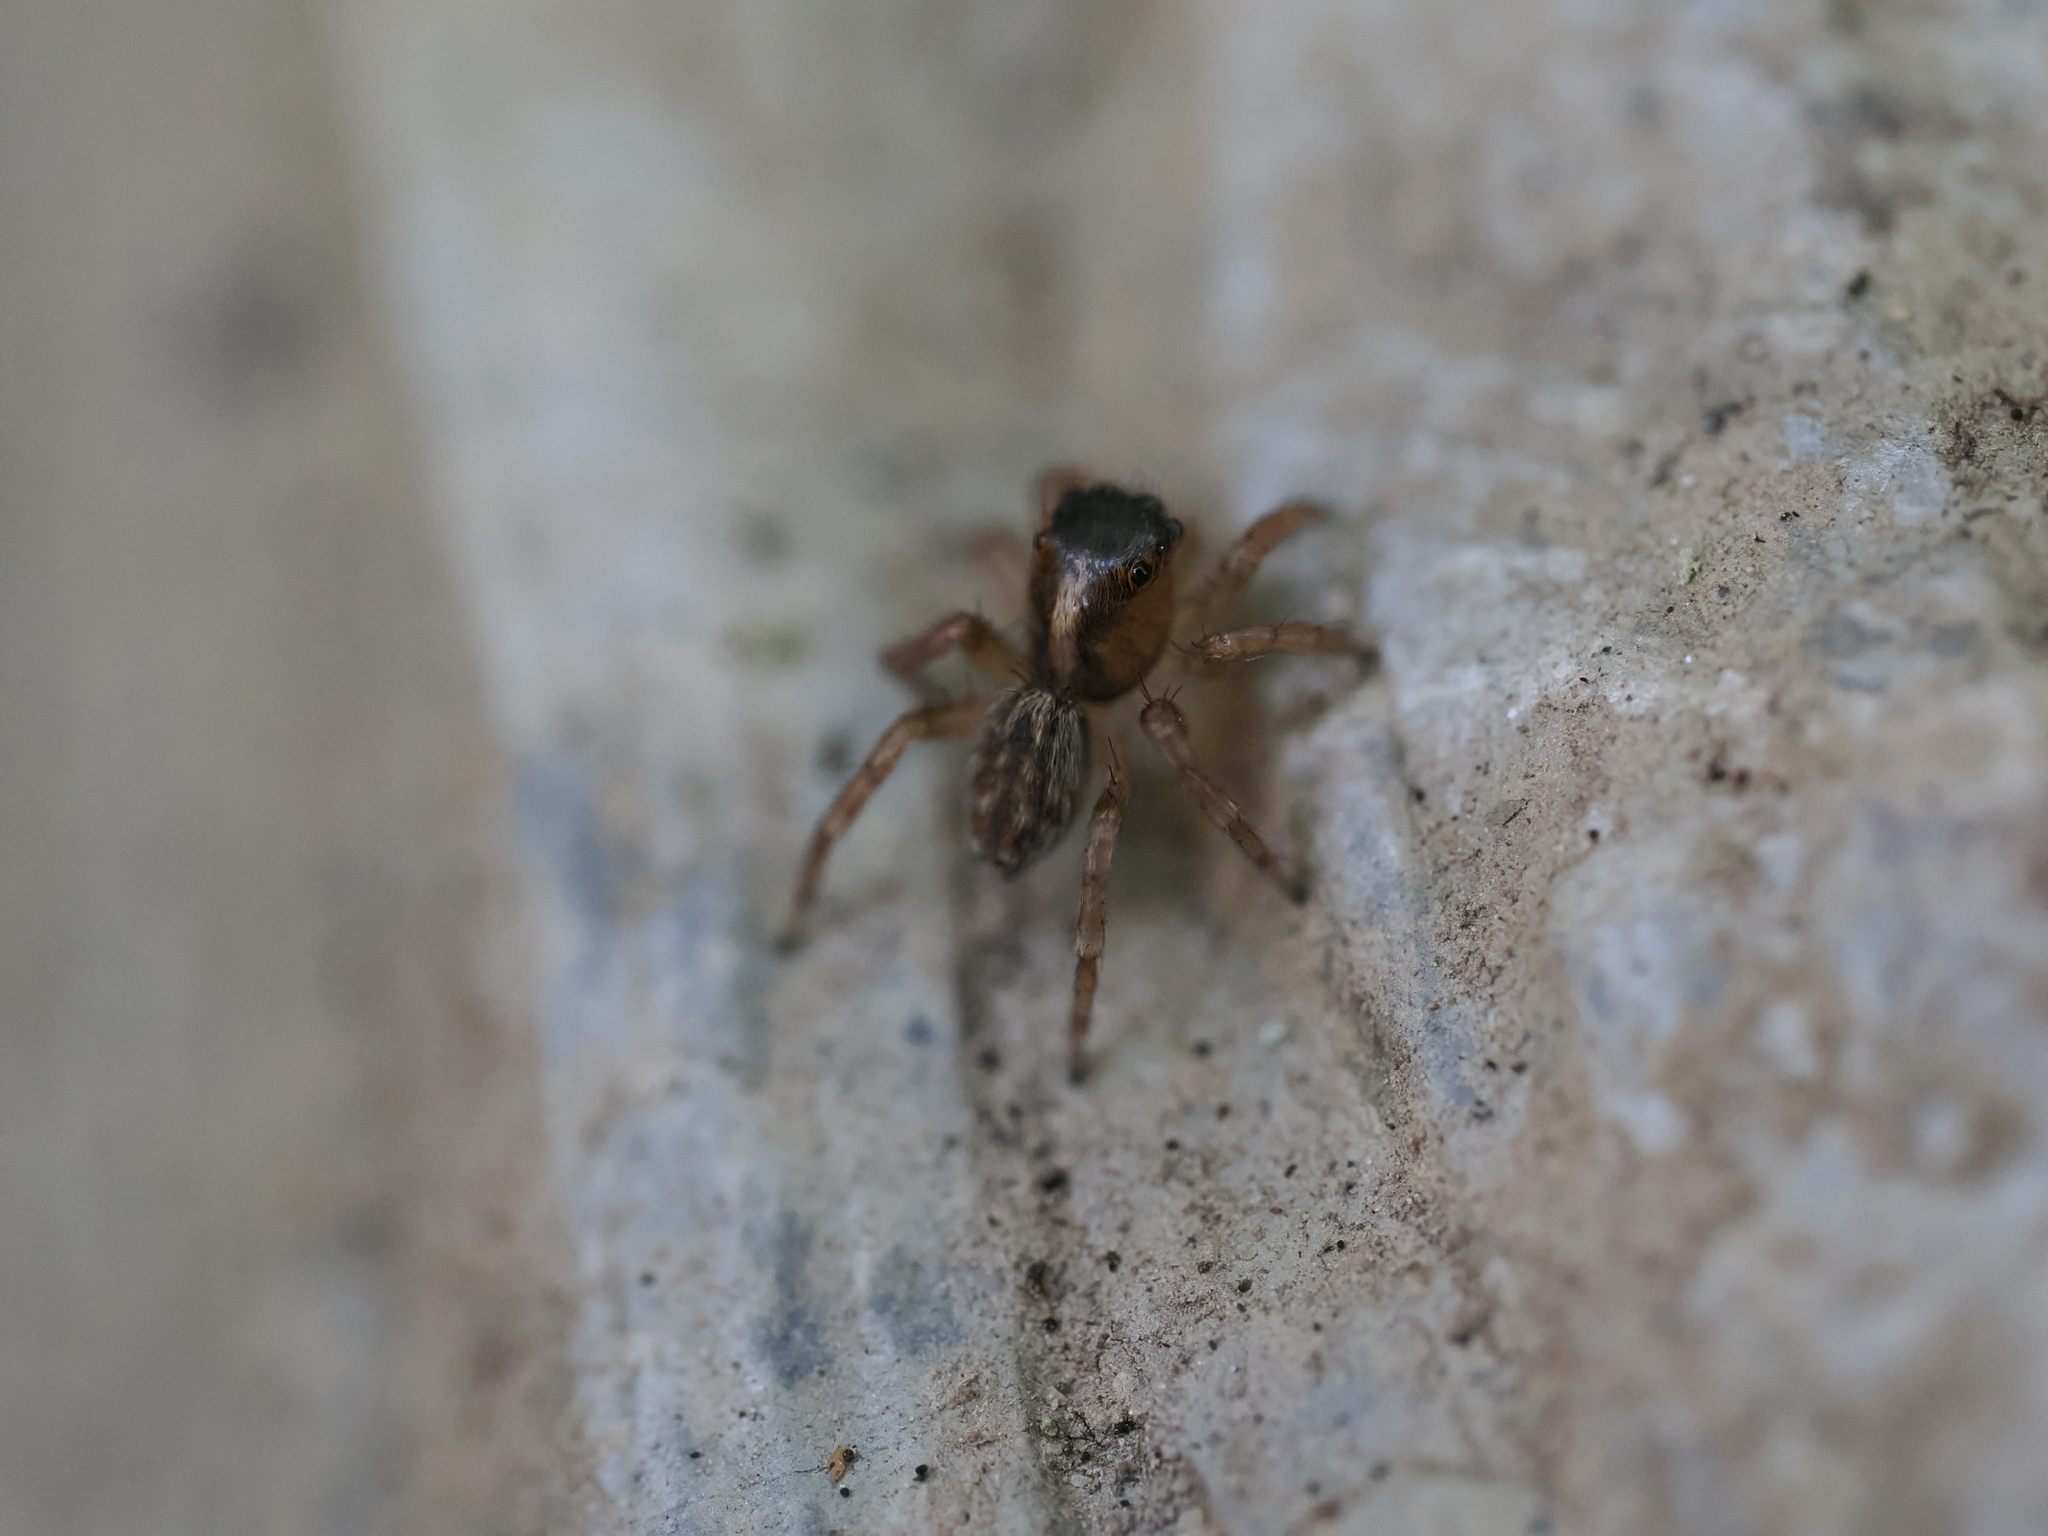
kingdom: Animalia
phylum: Arthropoda
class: Arachnida
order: Araneae
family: Salticidae
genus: Saitis
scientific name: Saitis barbipes
